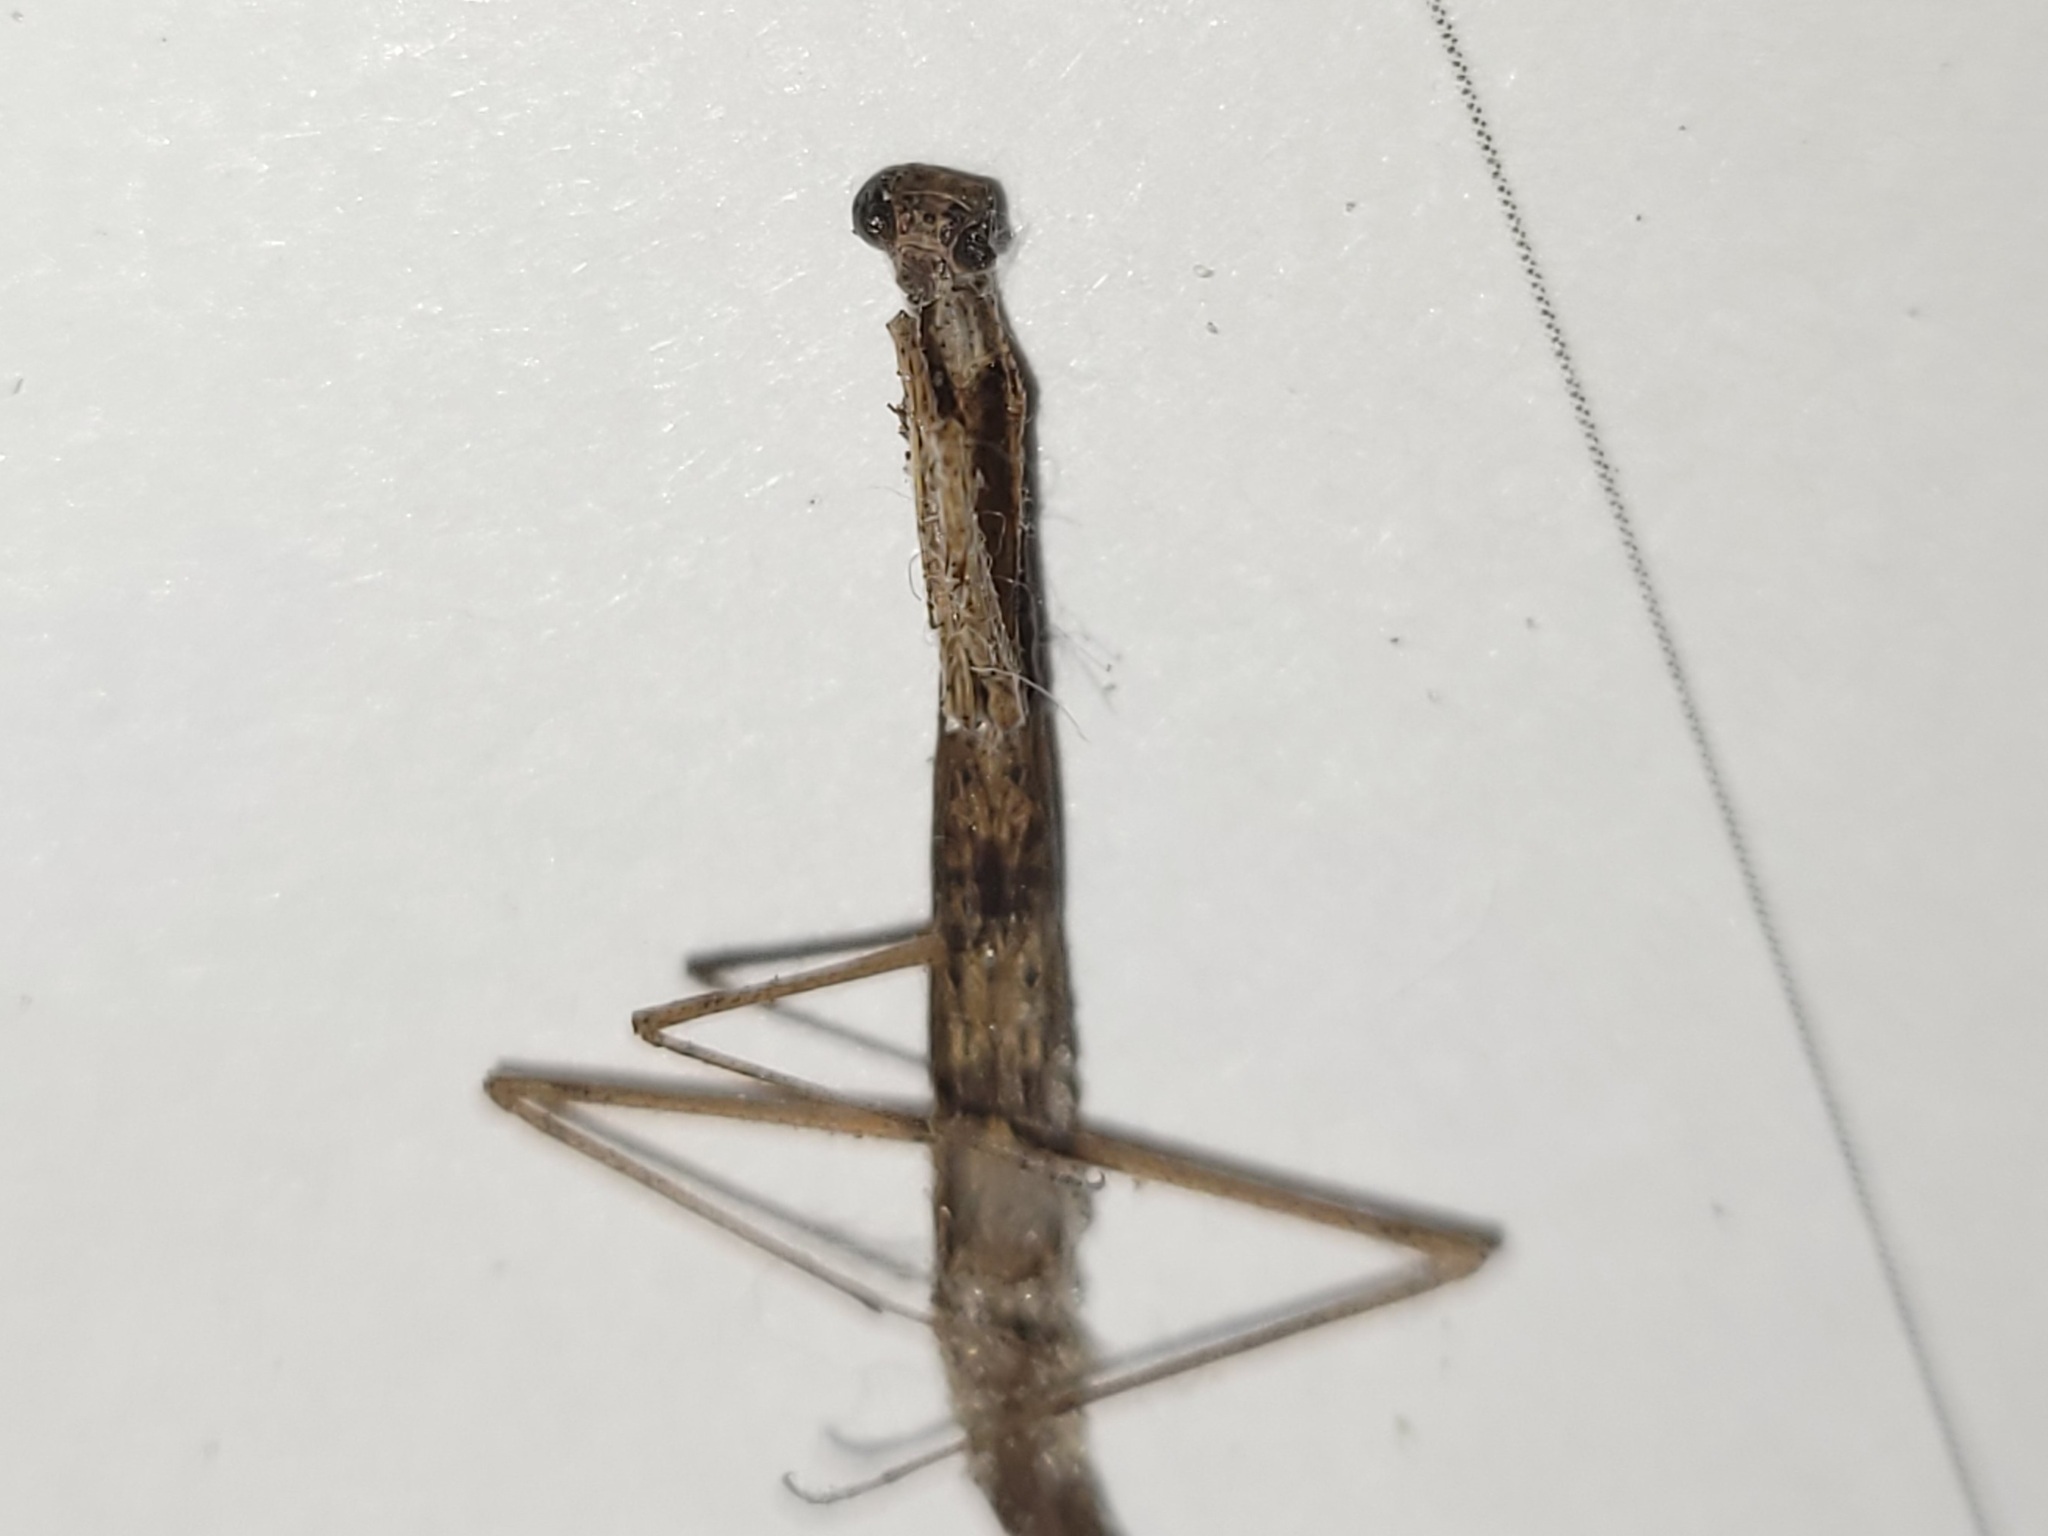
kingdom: Animalia
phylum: Arthropoda
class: Insecta
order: Mantodea
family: Thespidae
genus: Thespis
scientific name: Thespis parva
